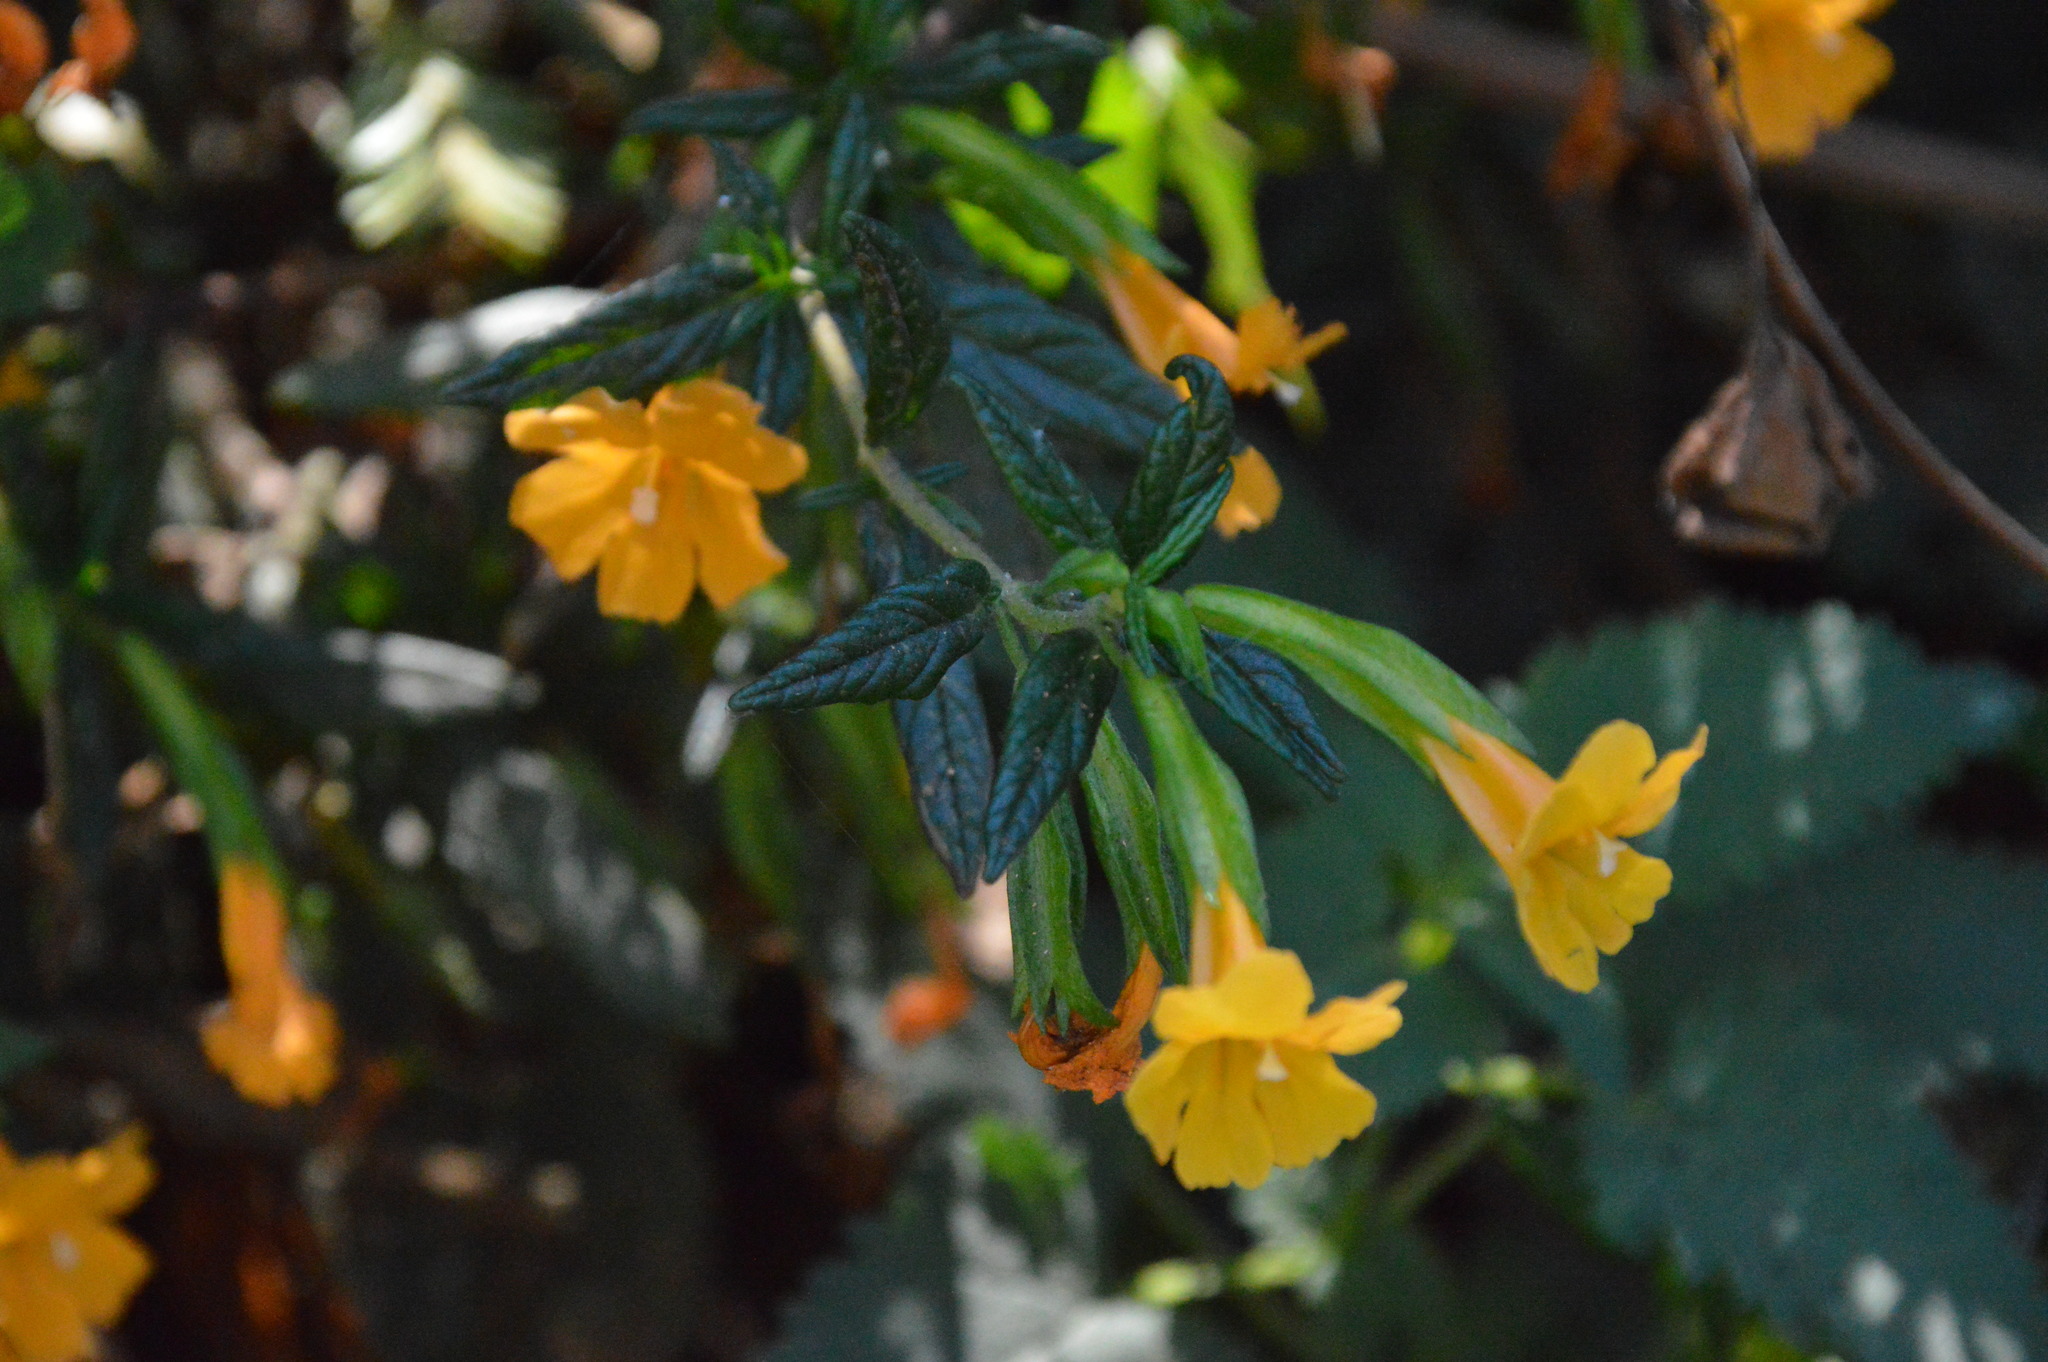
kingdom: Plantae
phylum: Tracheophyta
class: Magnoliopsida
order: Lamiales
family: Phrymaceae
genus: Diplacus
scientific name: Diplacus aurantiacus
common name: Bush monkey-flower
